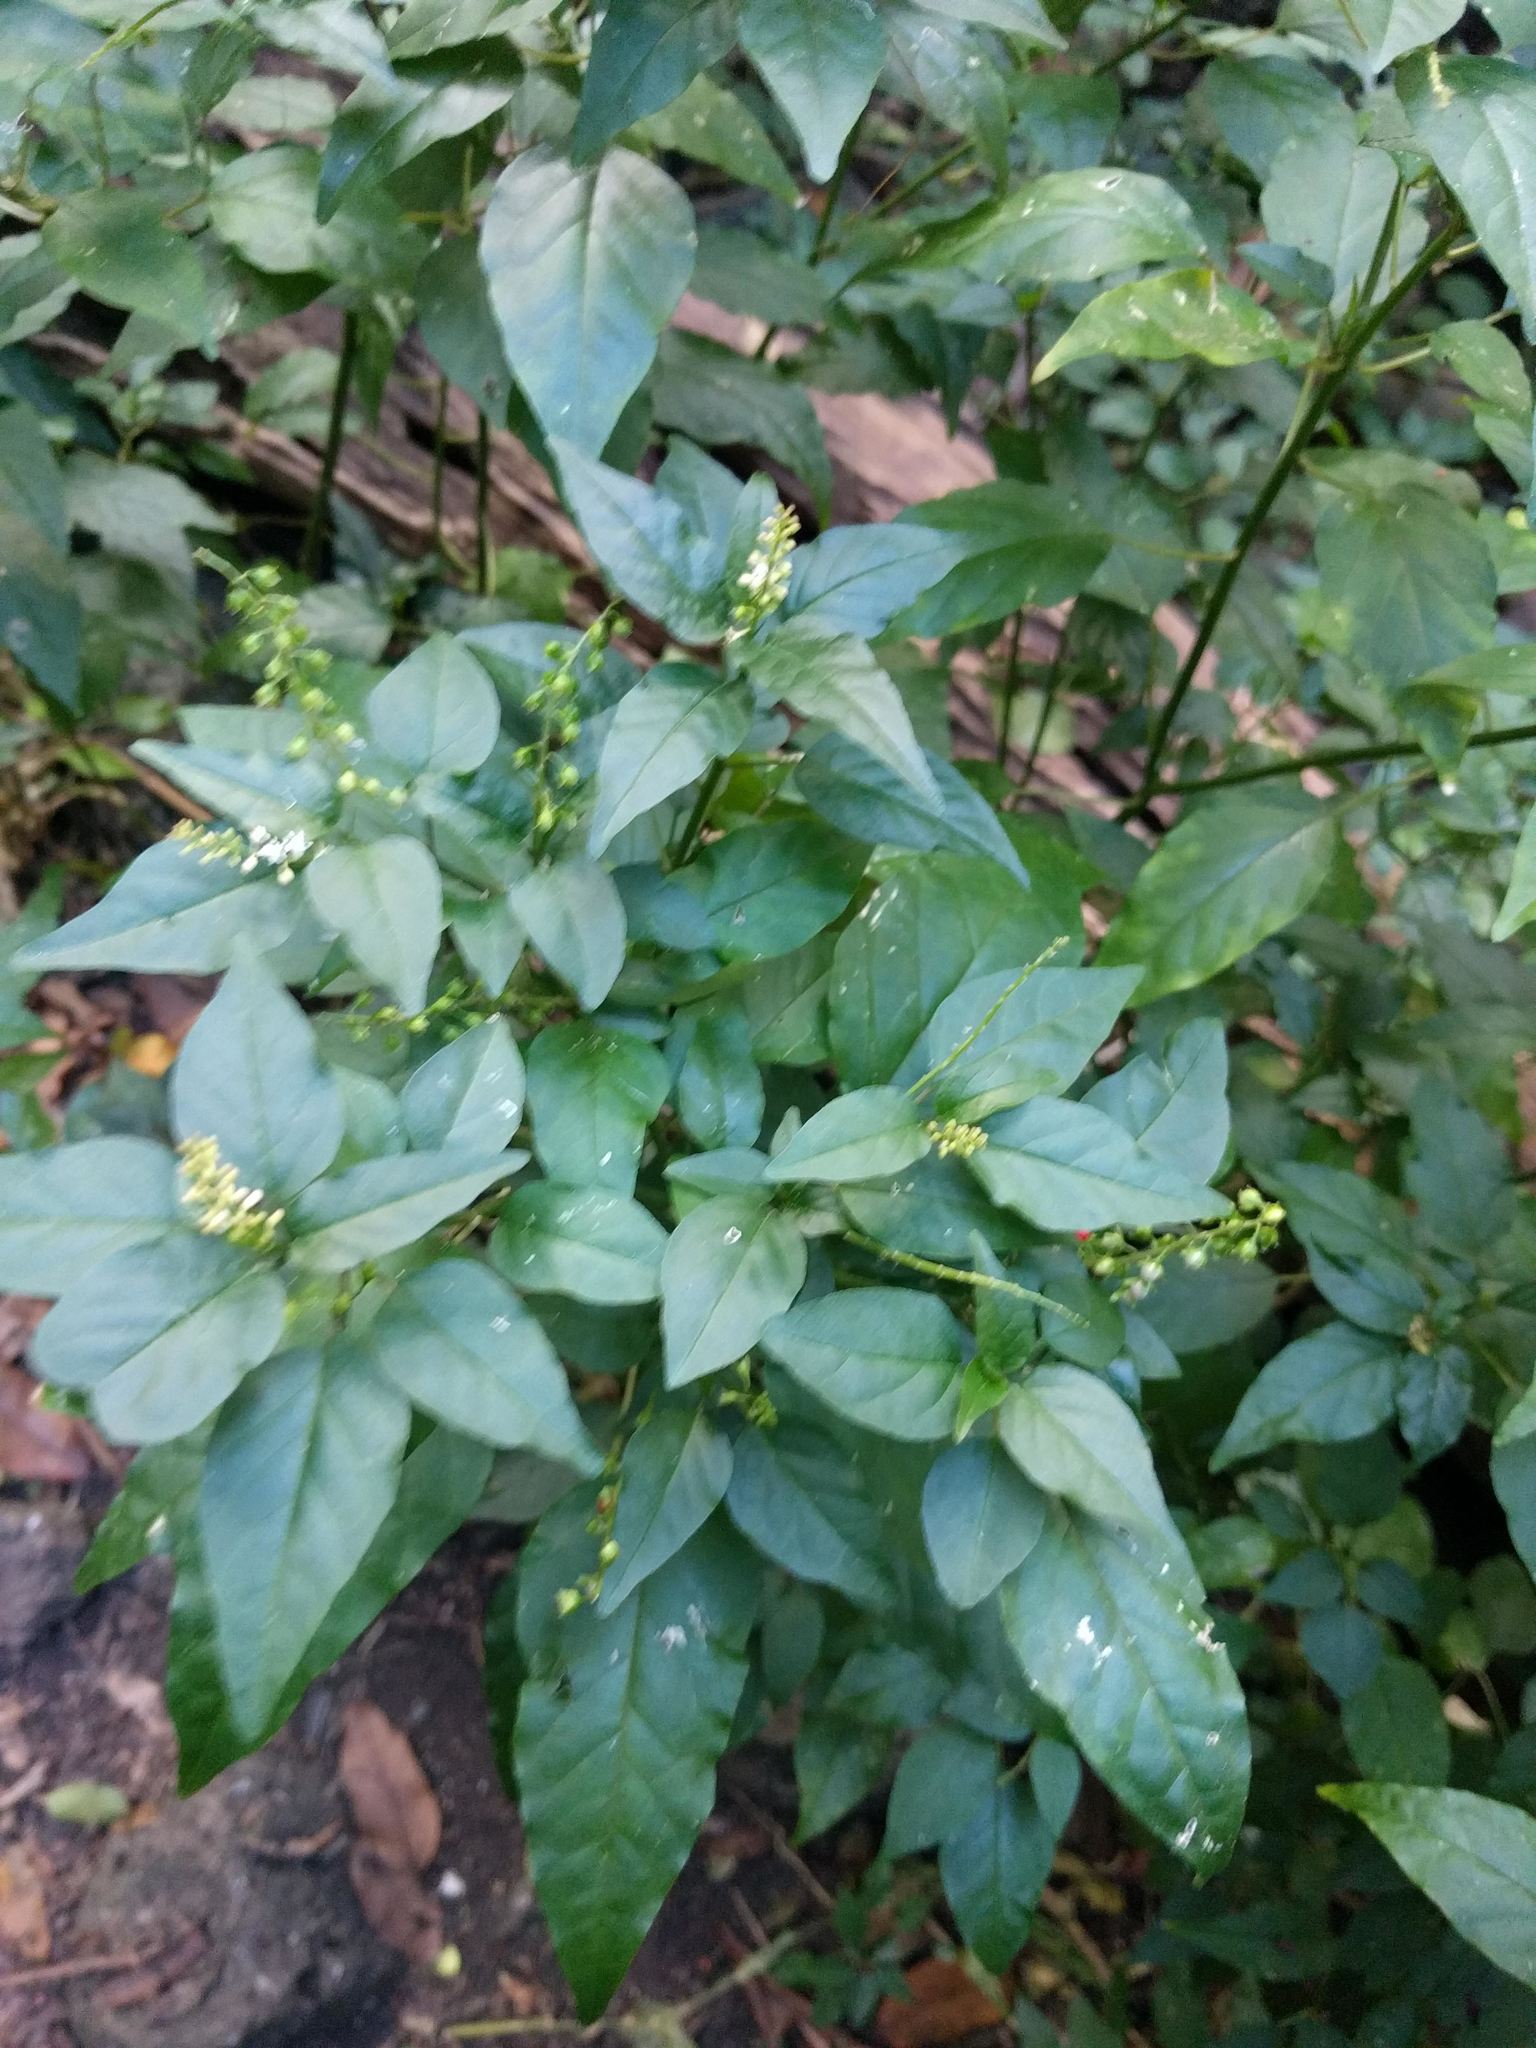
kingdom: Plantae
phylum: Tracheophyta
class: Magnoliopsida
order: Caryophyllales
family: Phytolaccaceae
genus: Rivina
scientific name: Rivina humilis
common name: Rougeplant
